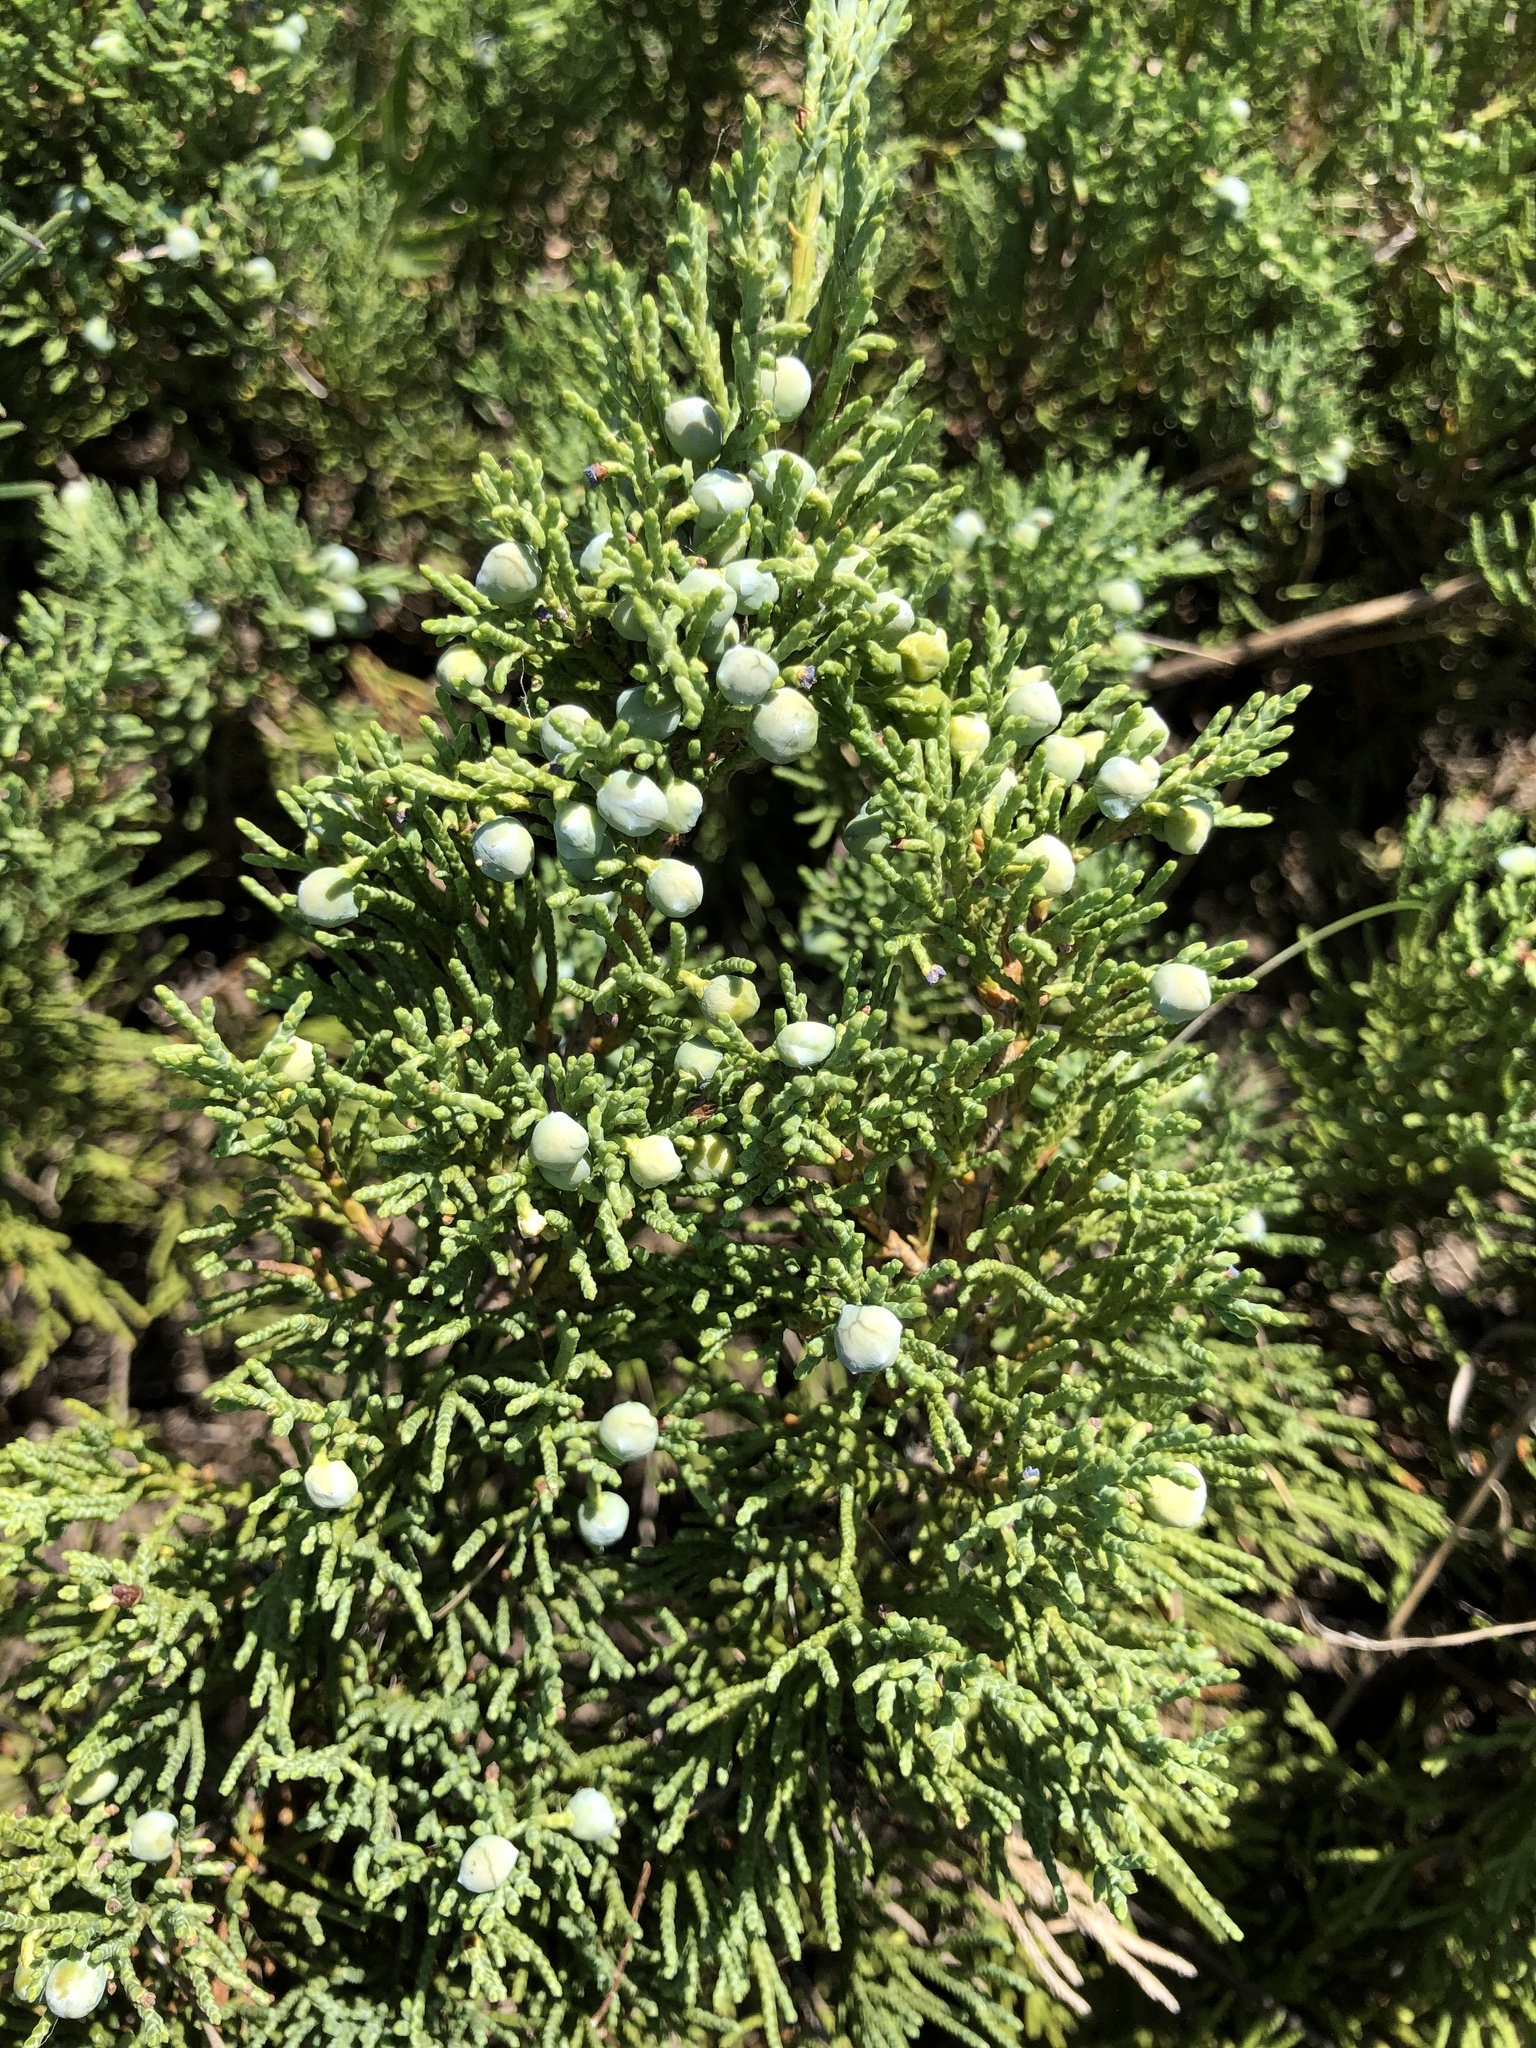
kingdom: Plantae
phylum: Tracheophyta
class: Pinopsida
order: Pinales
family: Cupressaceae
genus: Juniperus
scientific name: Juniperus sabina
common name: Savin
